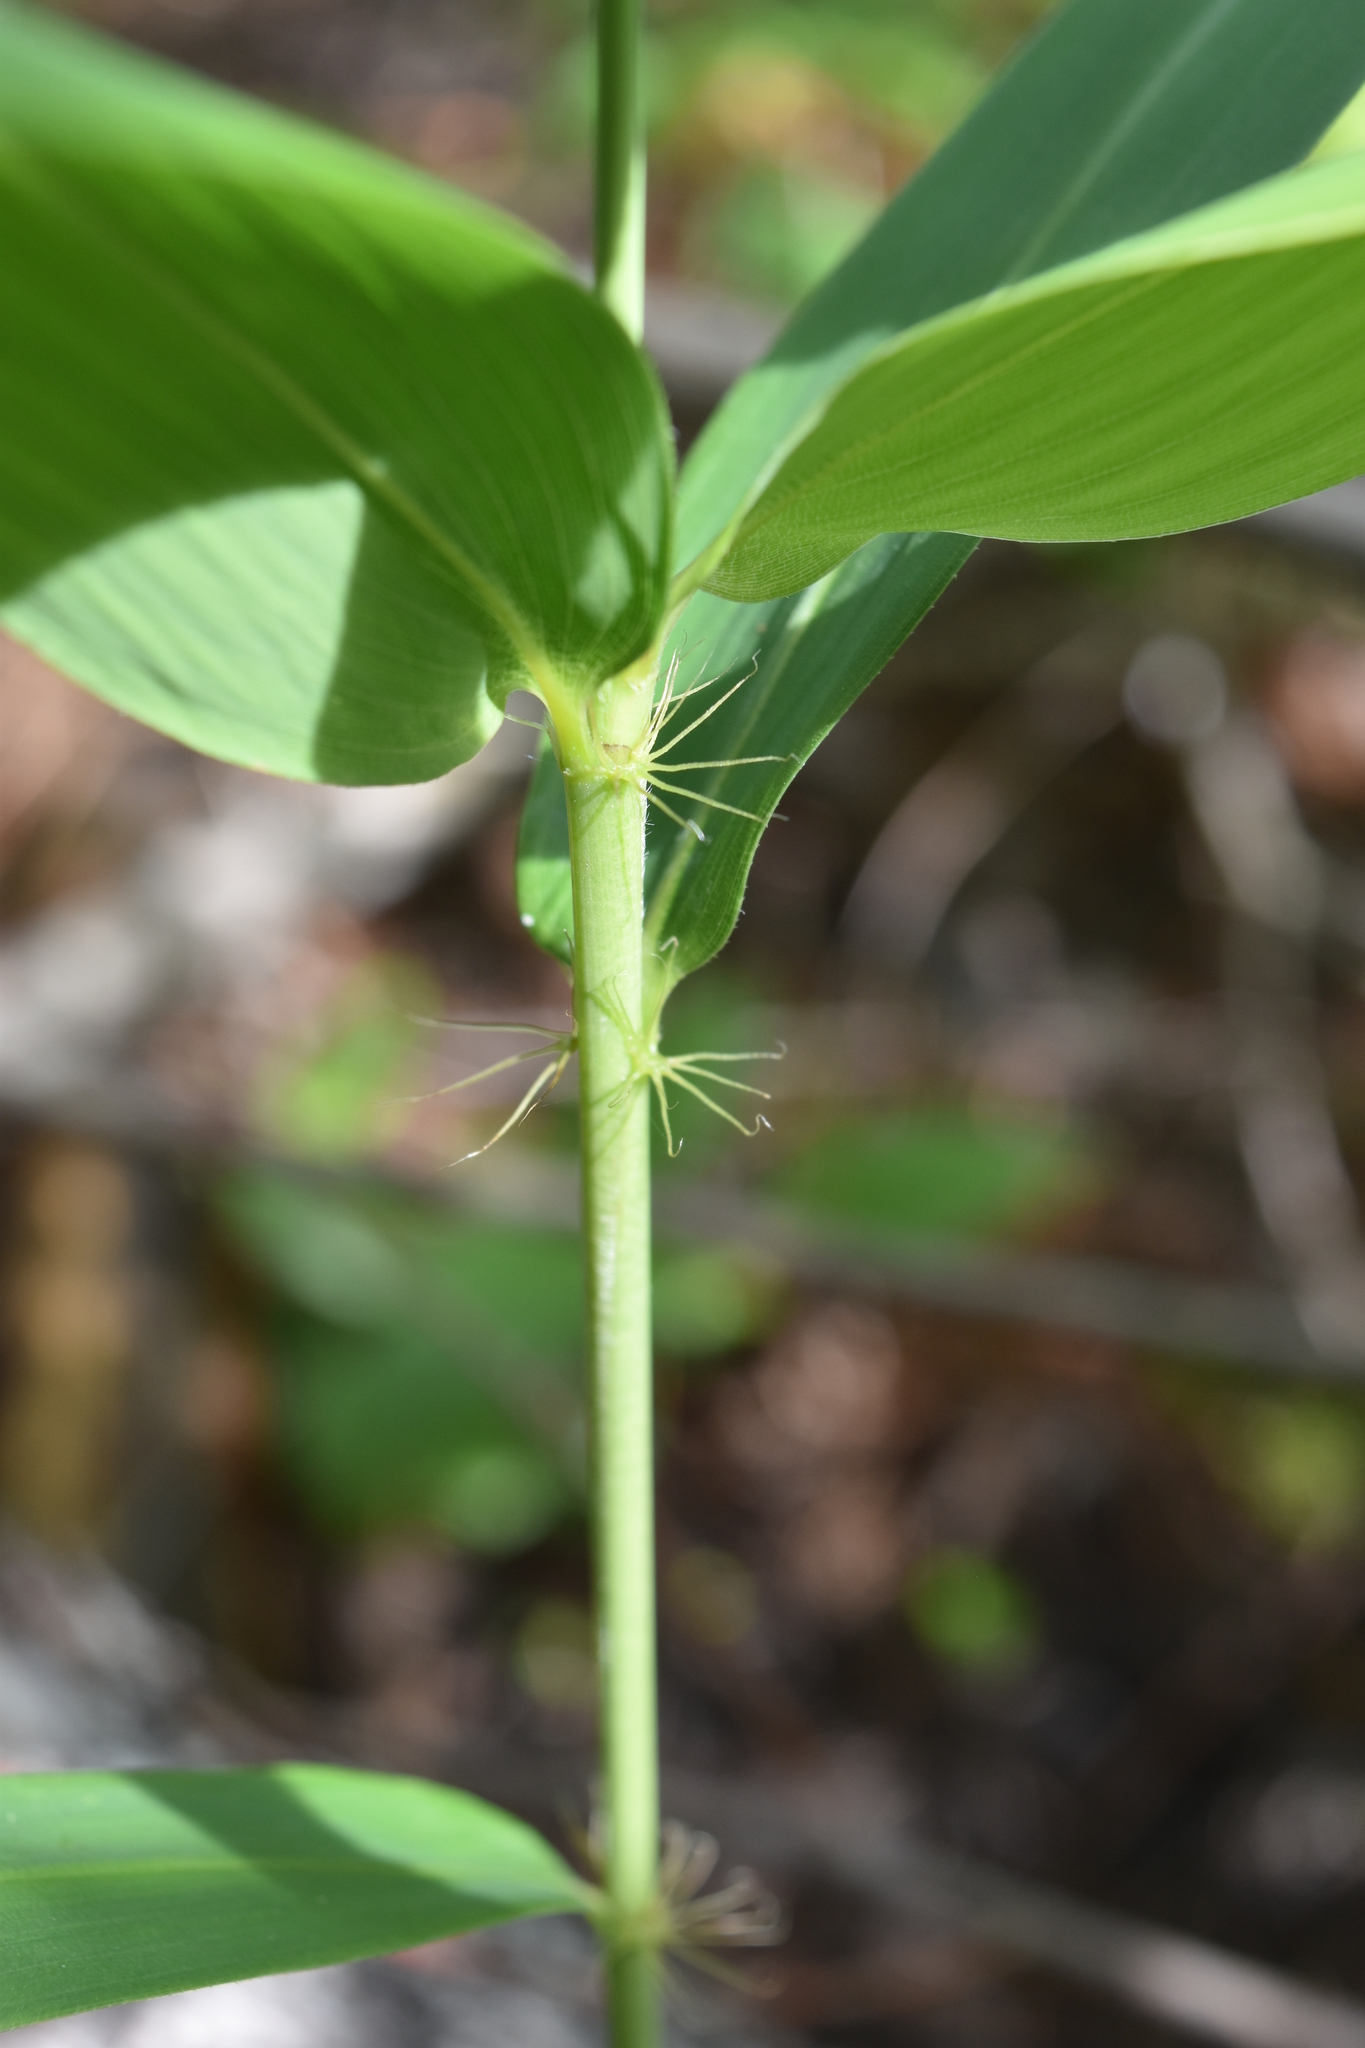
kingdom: Animalia
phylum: Arthropoda
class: Insecta
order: Odonata
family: Calopterygidae
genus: Calopteryx
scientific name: Calopteryx maculata
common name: Ebony jewelwing
